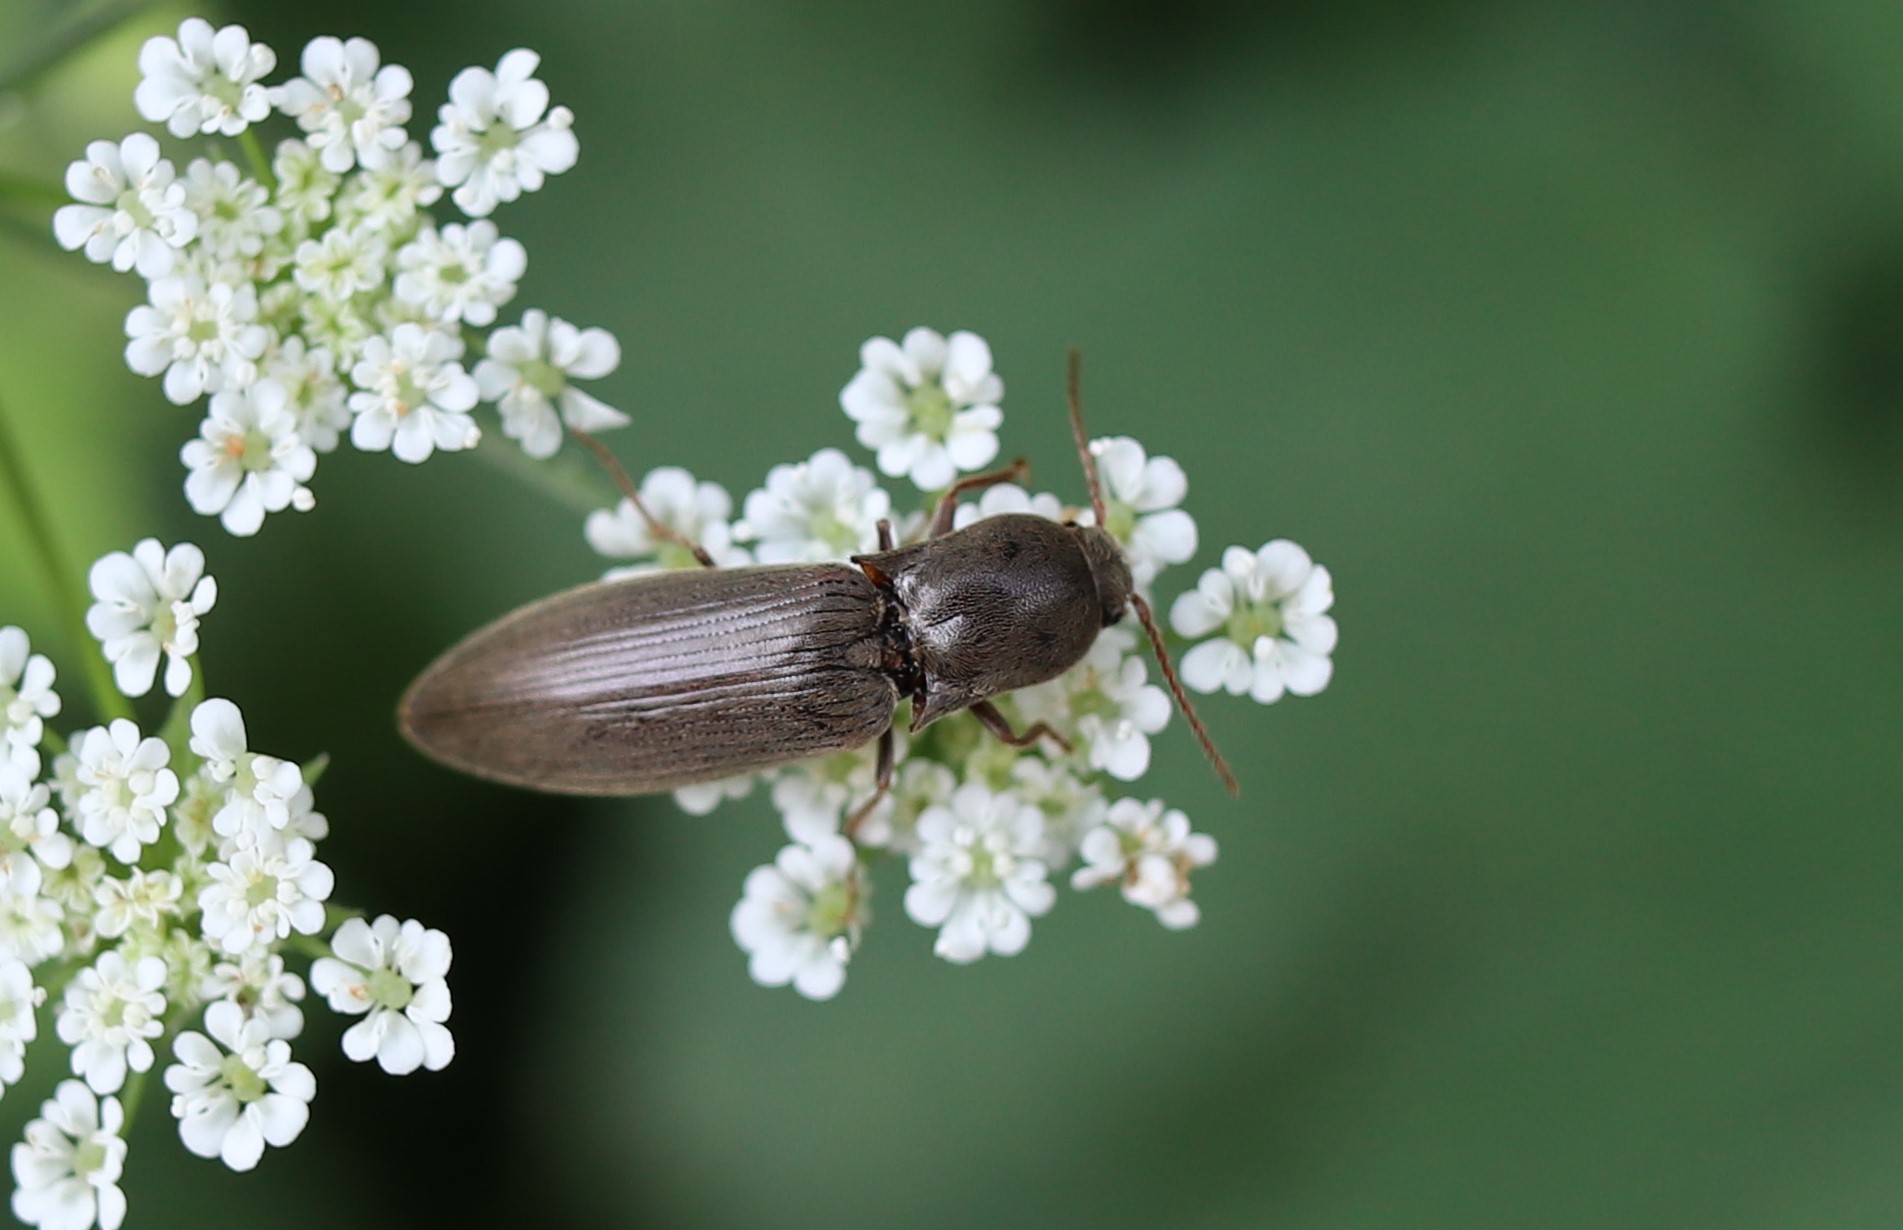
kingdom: Animalia
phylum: Arthropoda
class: Insecta
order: Coleoptera
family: Elateridae
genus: Agriotes
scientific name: Agriotes pilosellus
